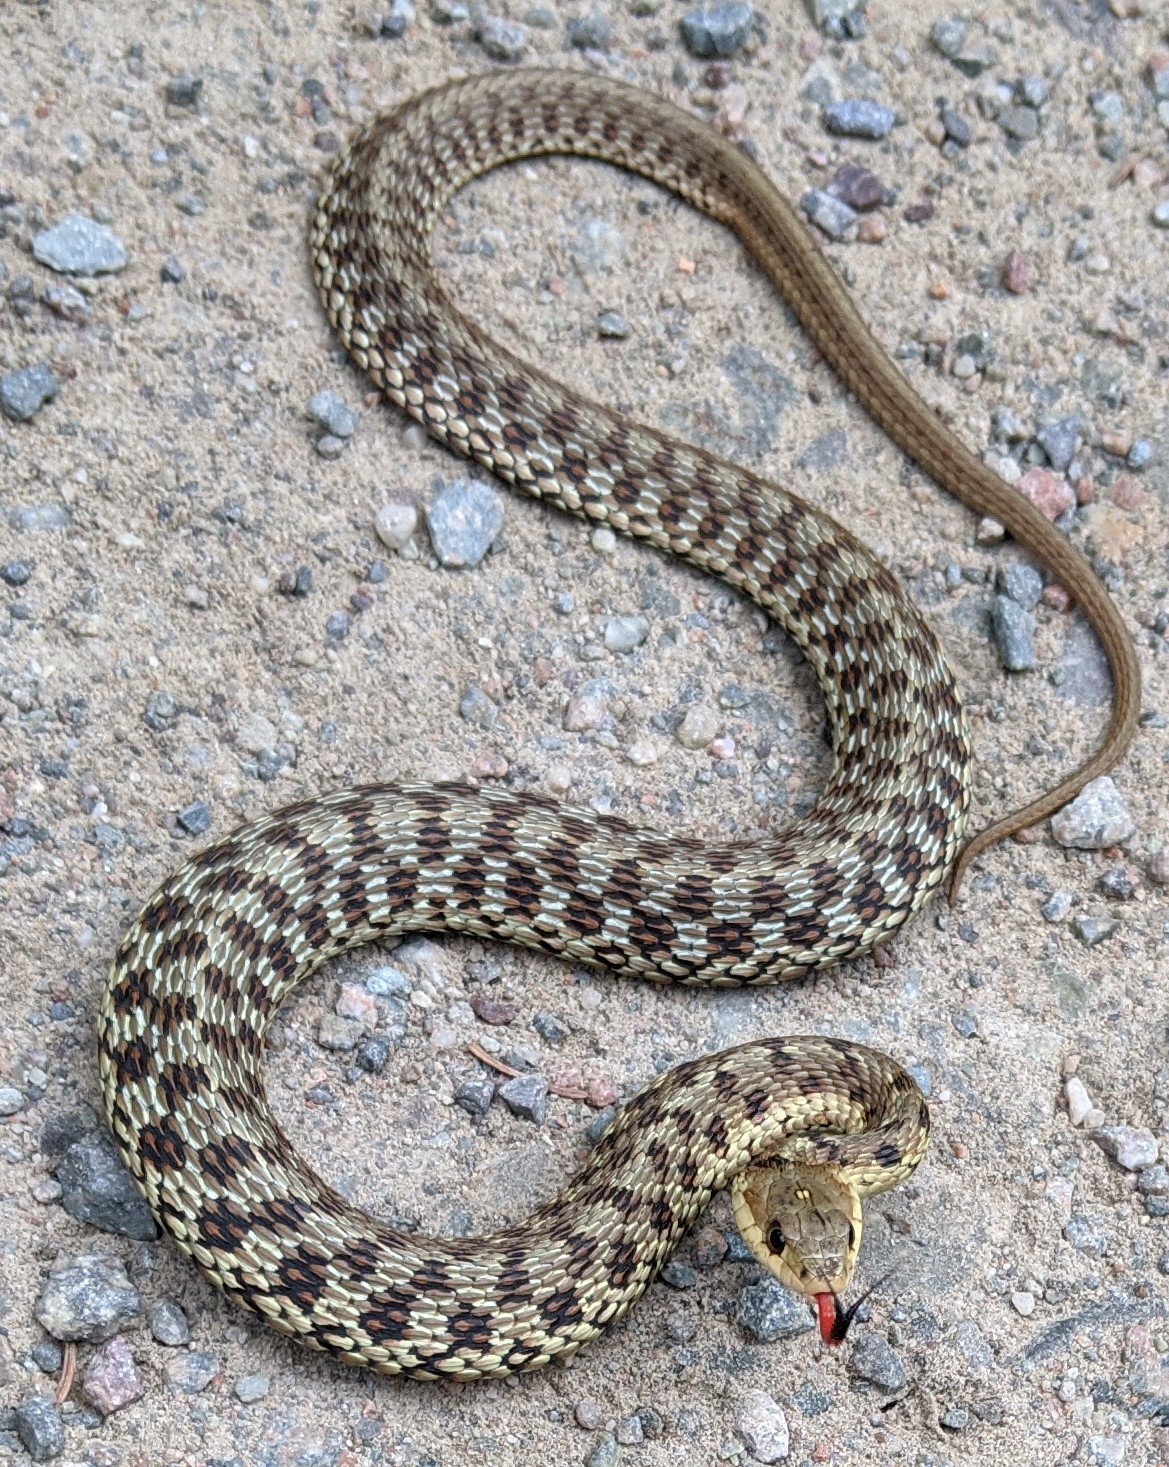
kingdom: Animalia
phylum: Chordata
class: Squamata
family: Colubridae
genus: Thamnophis
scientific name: Thamnophis sirtalis
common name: Common garter snake
